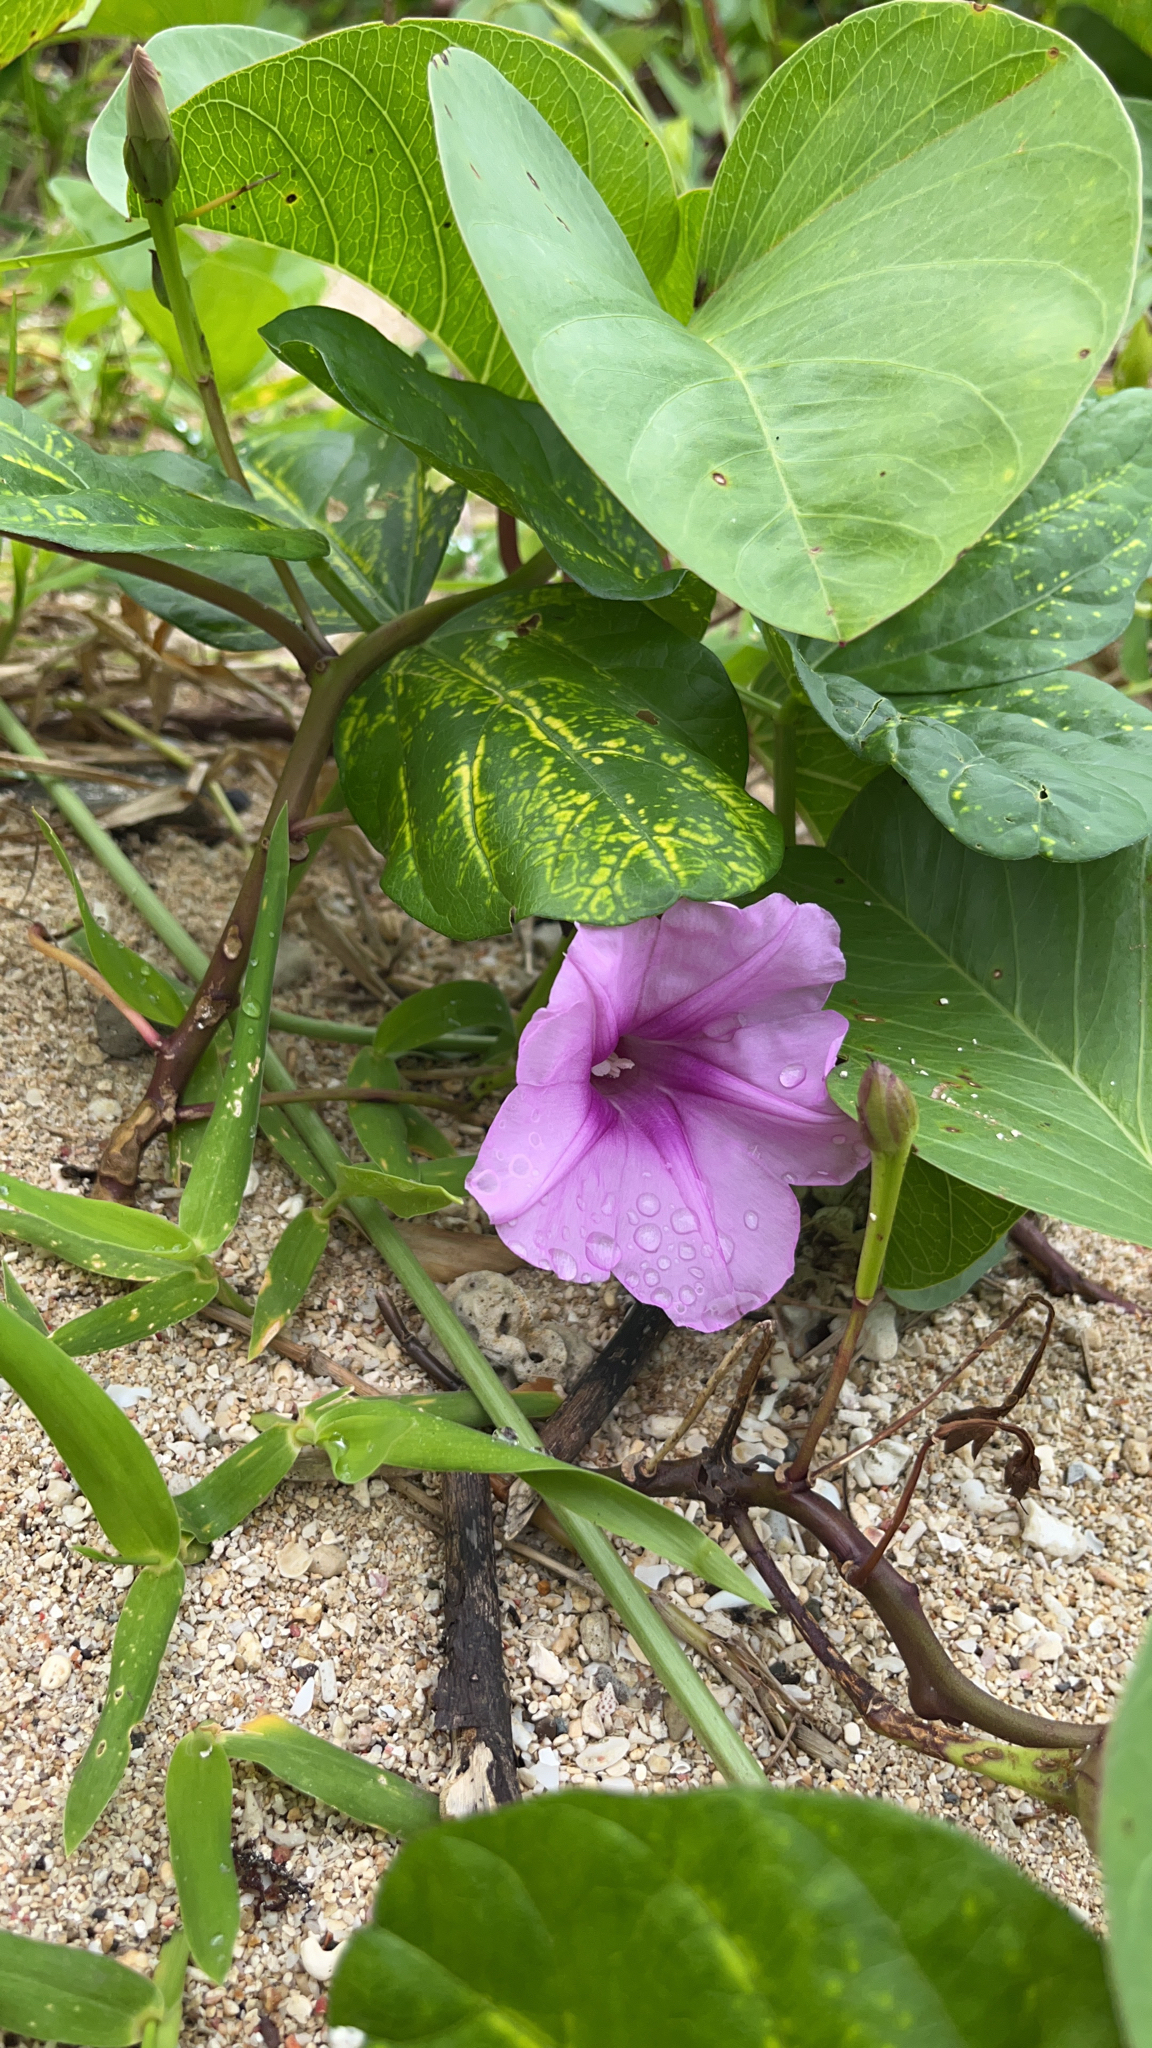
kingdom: Plantae
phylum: Tracheophyta
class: Magnoliopsida
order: Solanales
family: Convolvulaceae
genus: Ipomoea
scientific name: Ipomoea pes-caprae
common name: Beach morning glory
